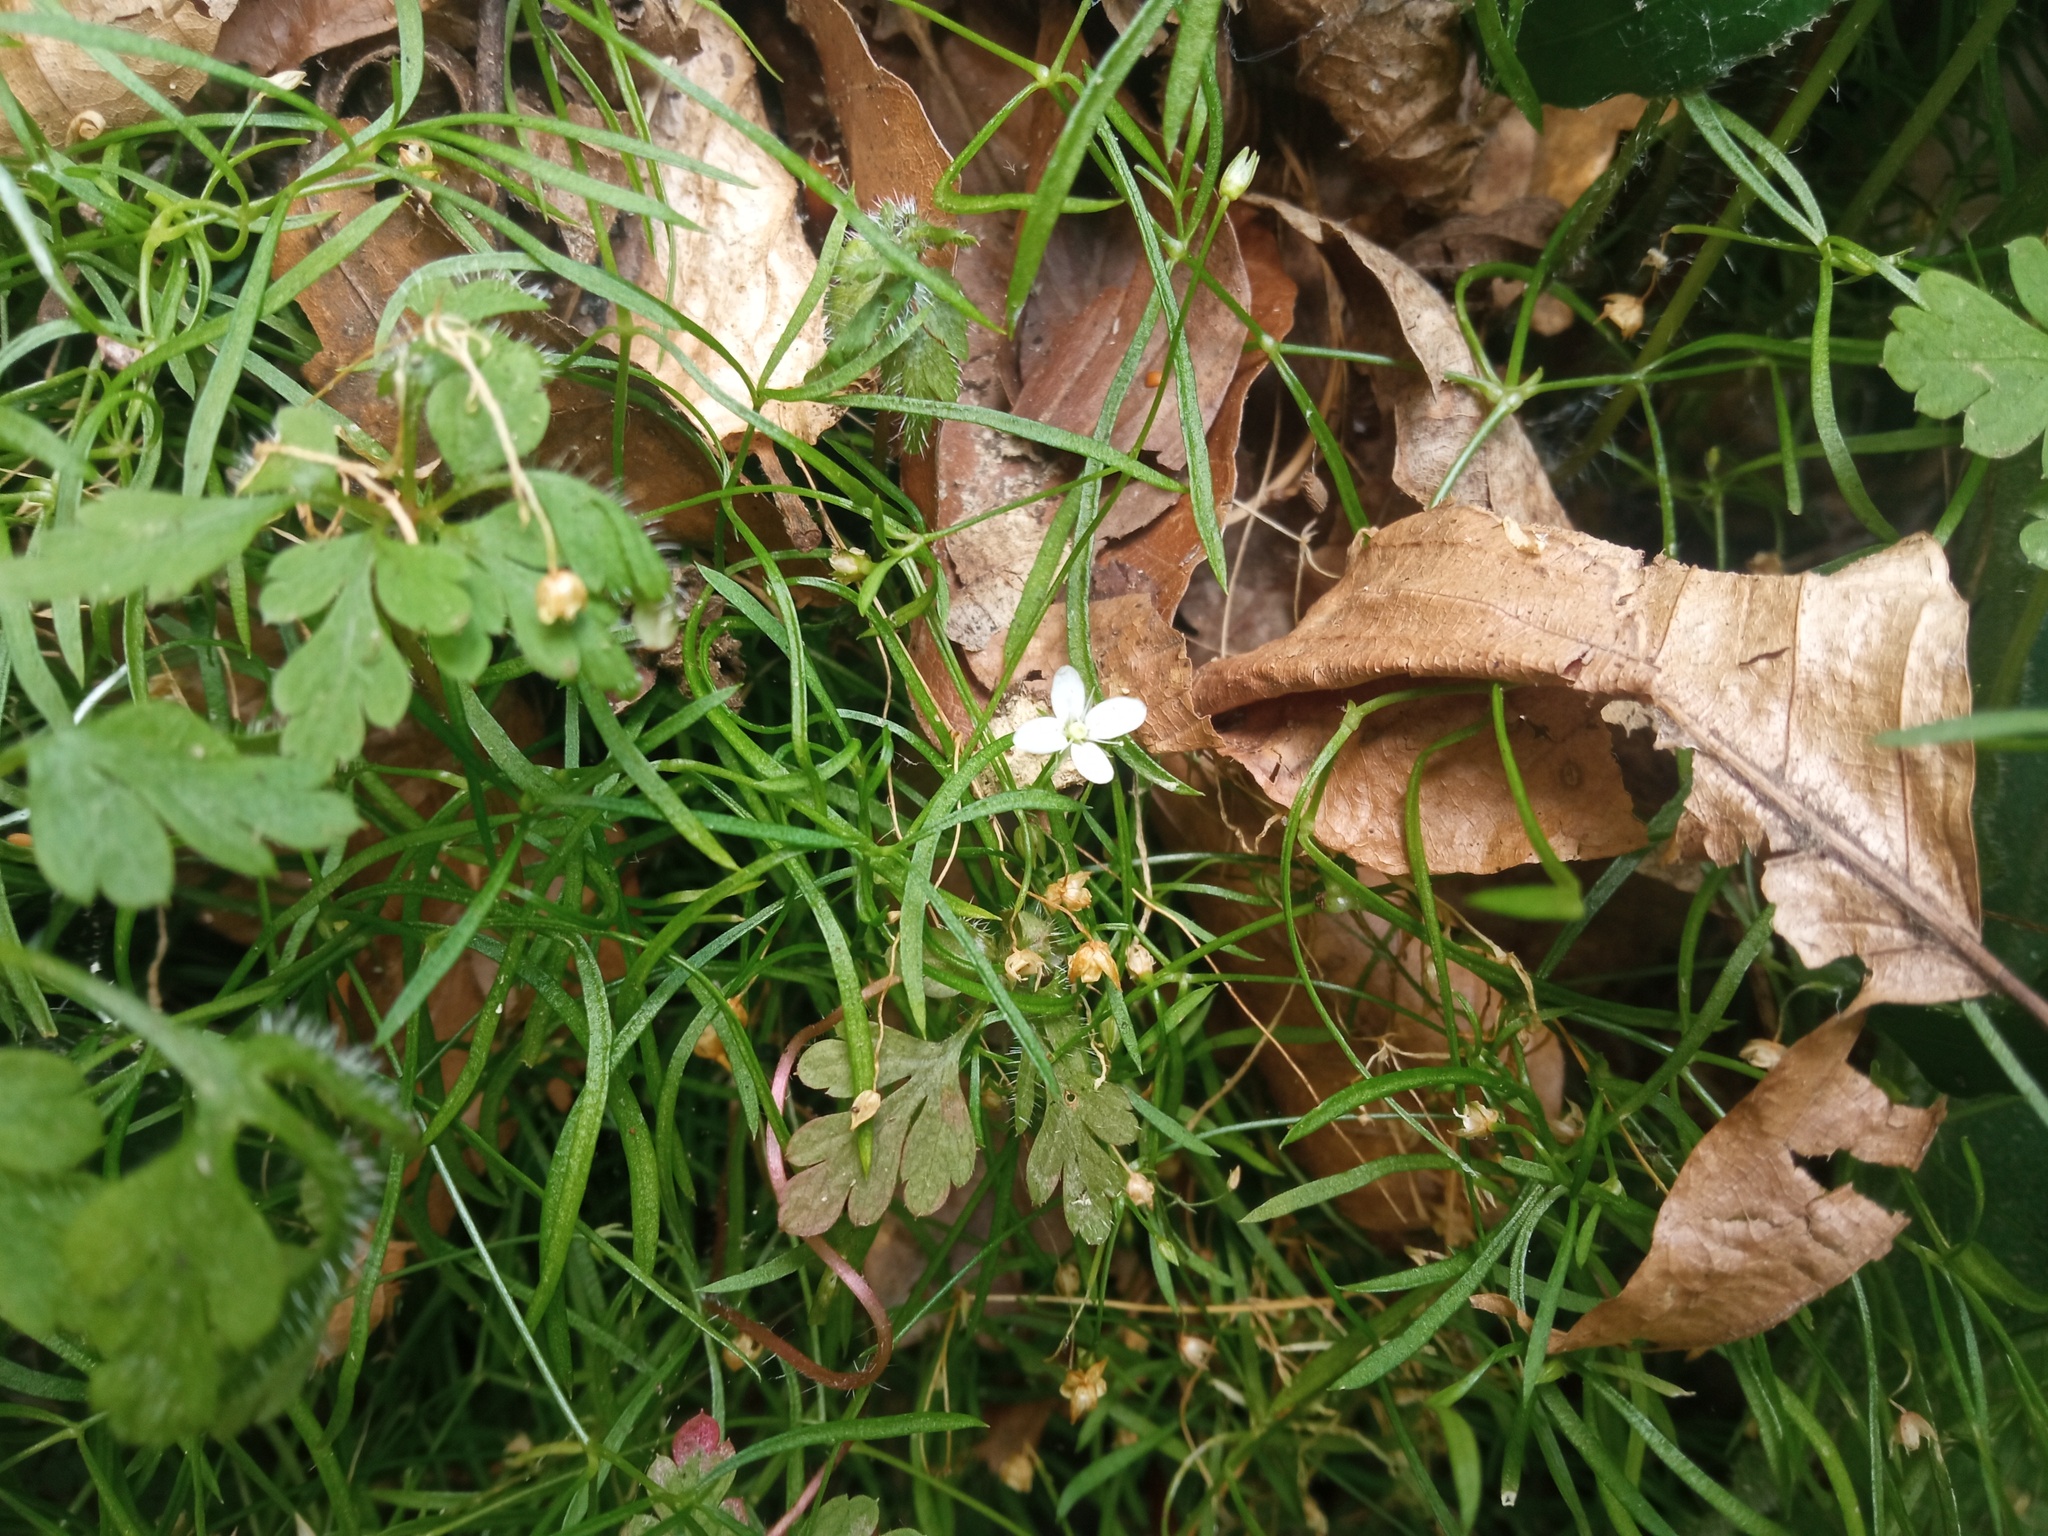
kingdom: Plantae
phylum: Tracheophyta
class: Magnoliopsida
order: Caryophyllales
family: Caryophyllaceae
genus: Moehringia
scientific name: Moehringia muscosa
